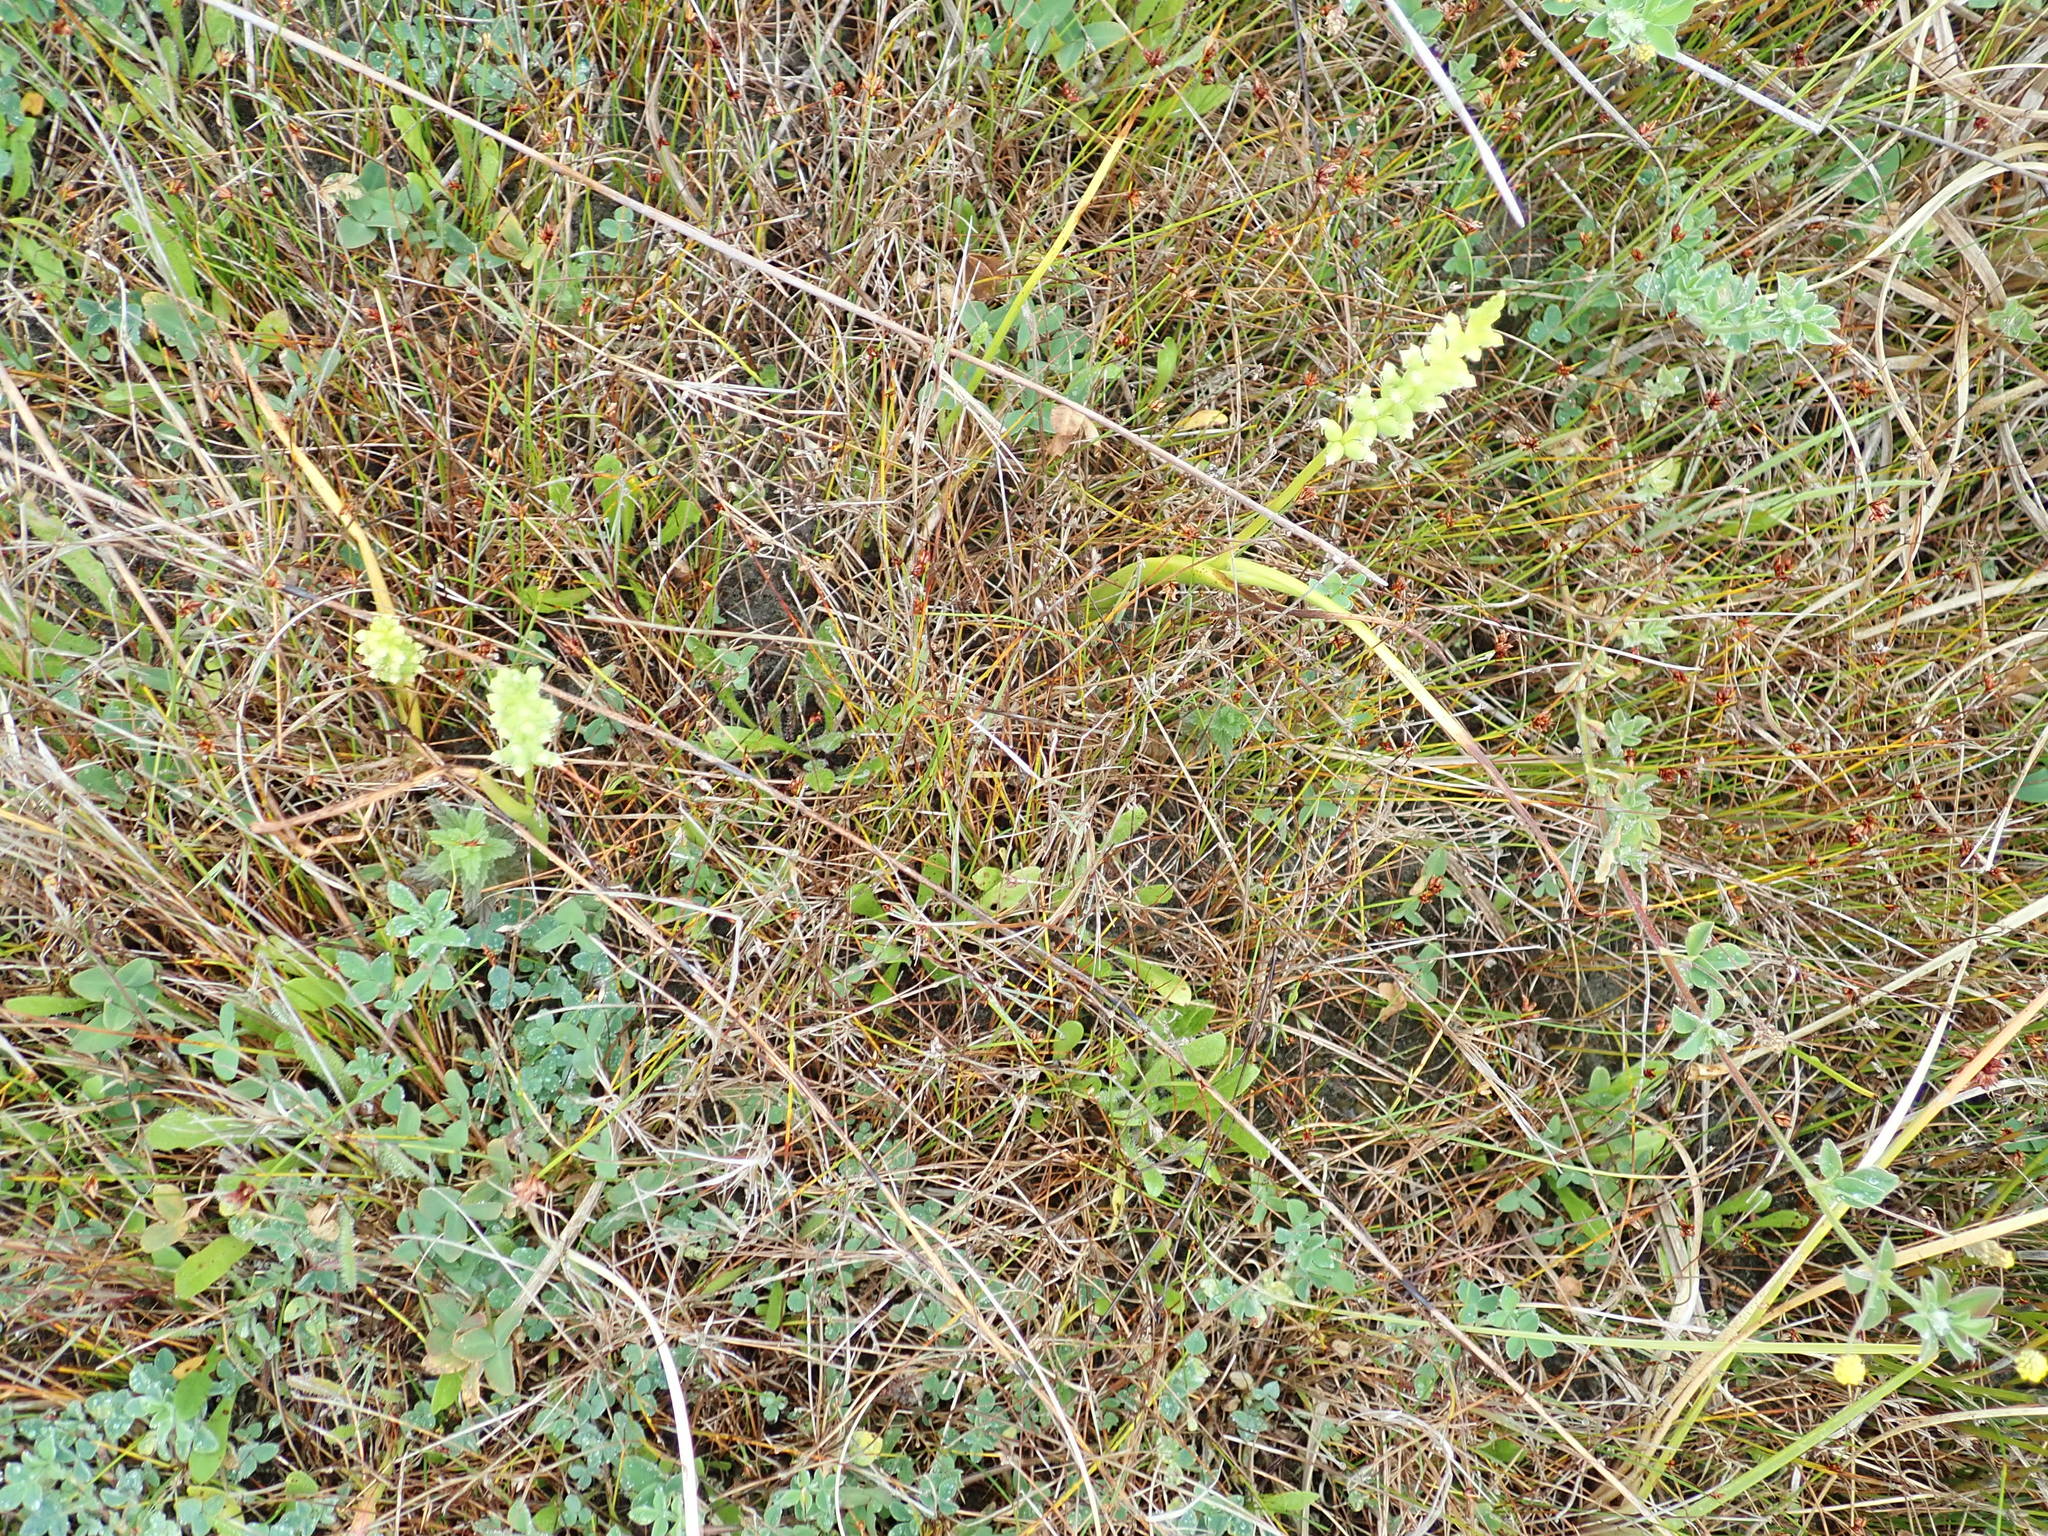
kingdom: Plantae
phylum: Tracheophyta
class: Liliopsida
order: Asparagales
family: Orchidaceae
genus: Microtis
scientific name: Microtis unifolia
